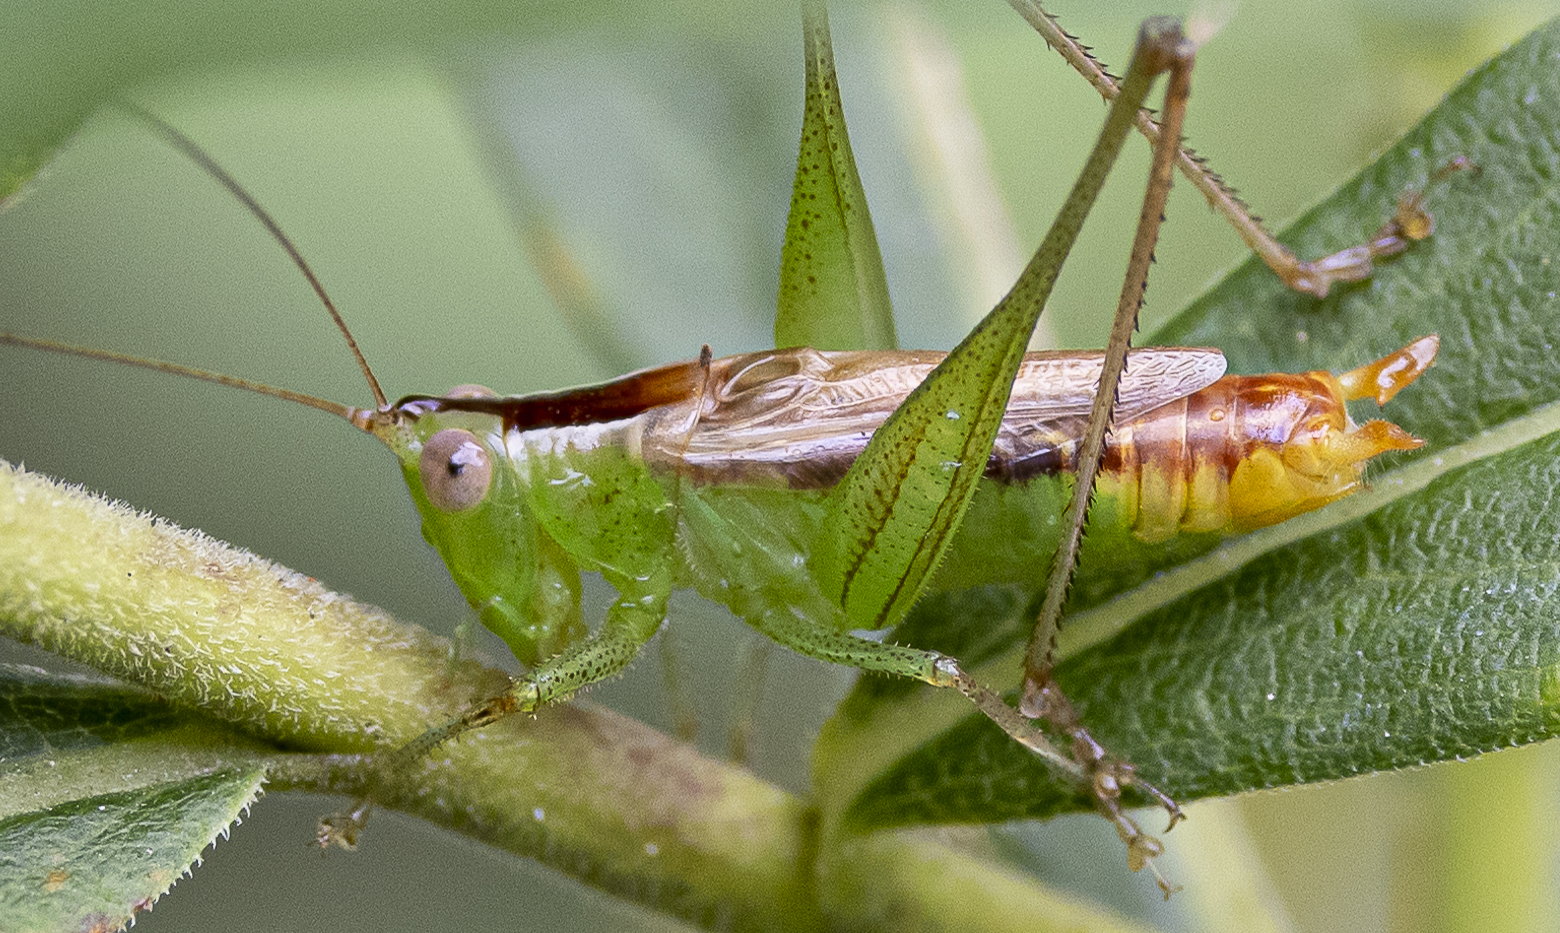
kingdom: Animalia
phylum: Arthropoda
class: Insecta
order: Orthoptera
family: Tettigoniidae
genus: Conocephalus
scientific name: Conocephalus brevipennis
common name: Short-winged meadow katydid
